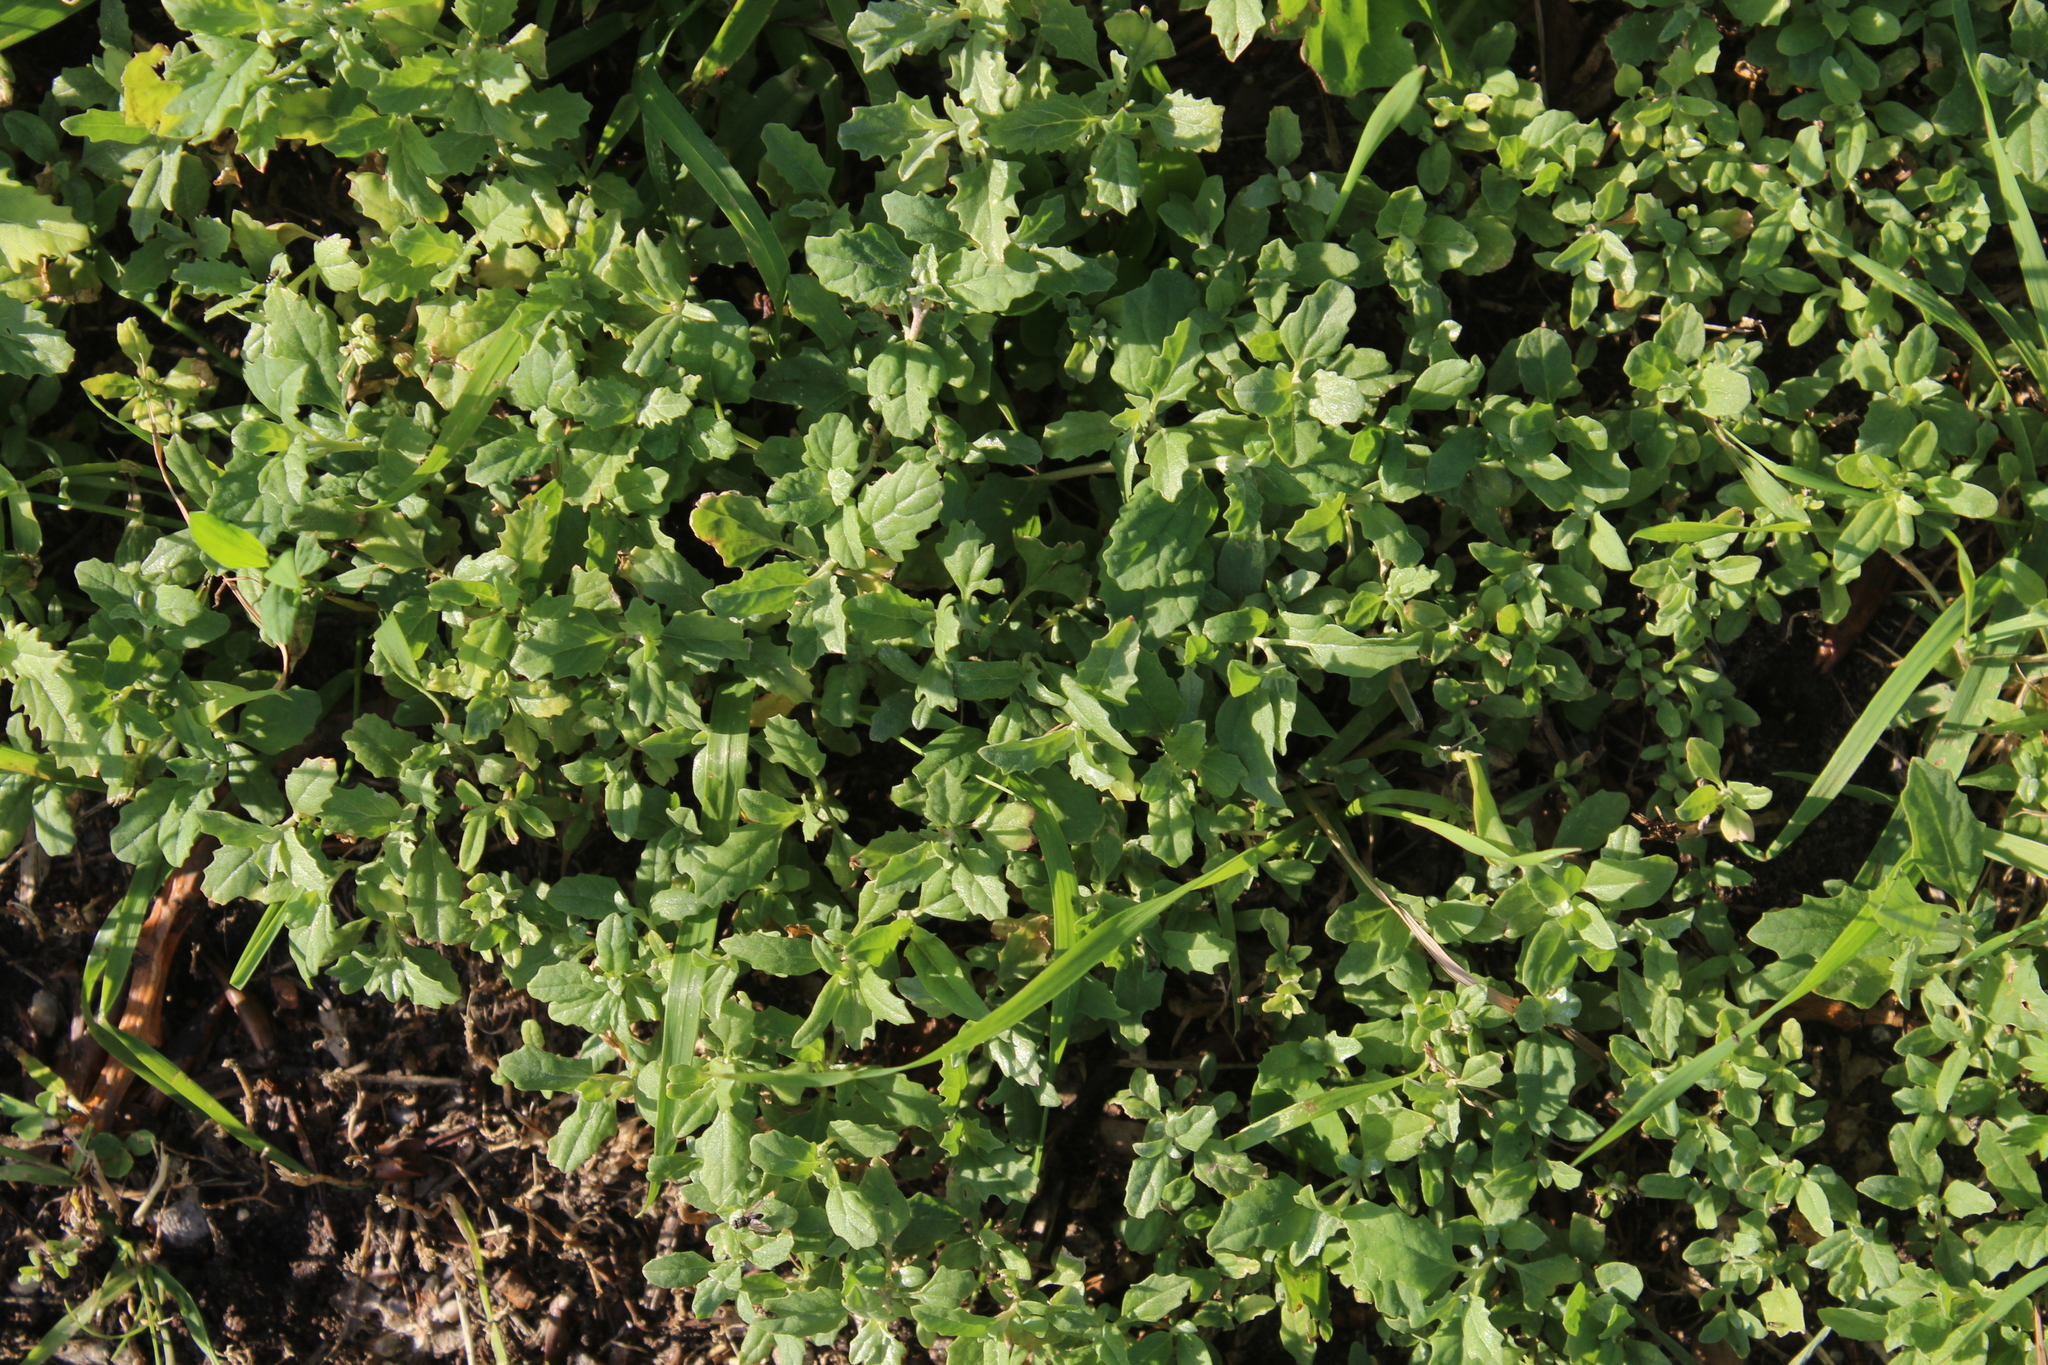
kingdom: Plantae
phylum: Tracheophyta
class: Magnoliopsida
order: Caryophyllales
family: Amaranthaceae
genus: Atriplex
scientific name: Atriplex tatarica
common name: Tatarian orache
